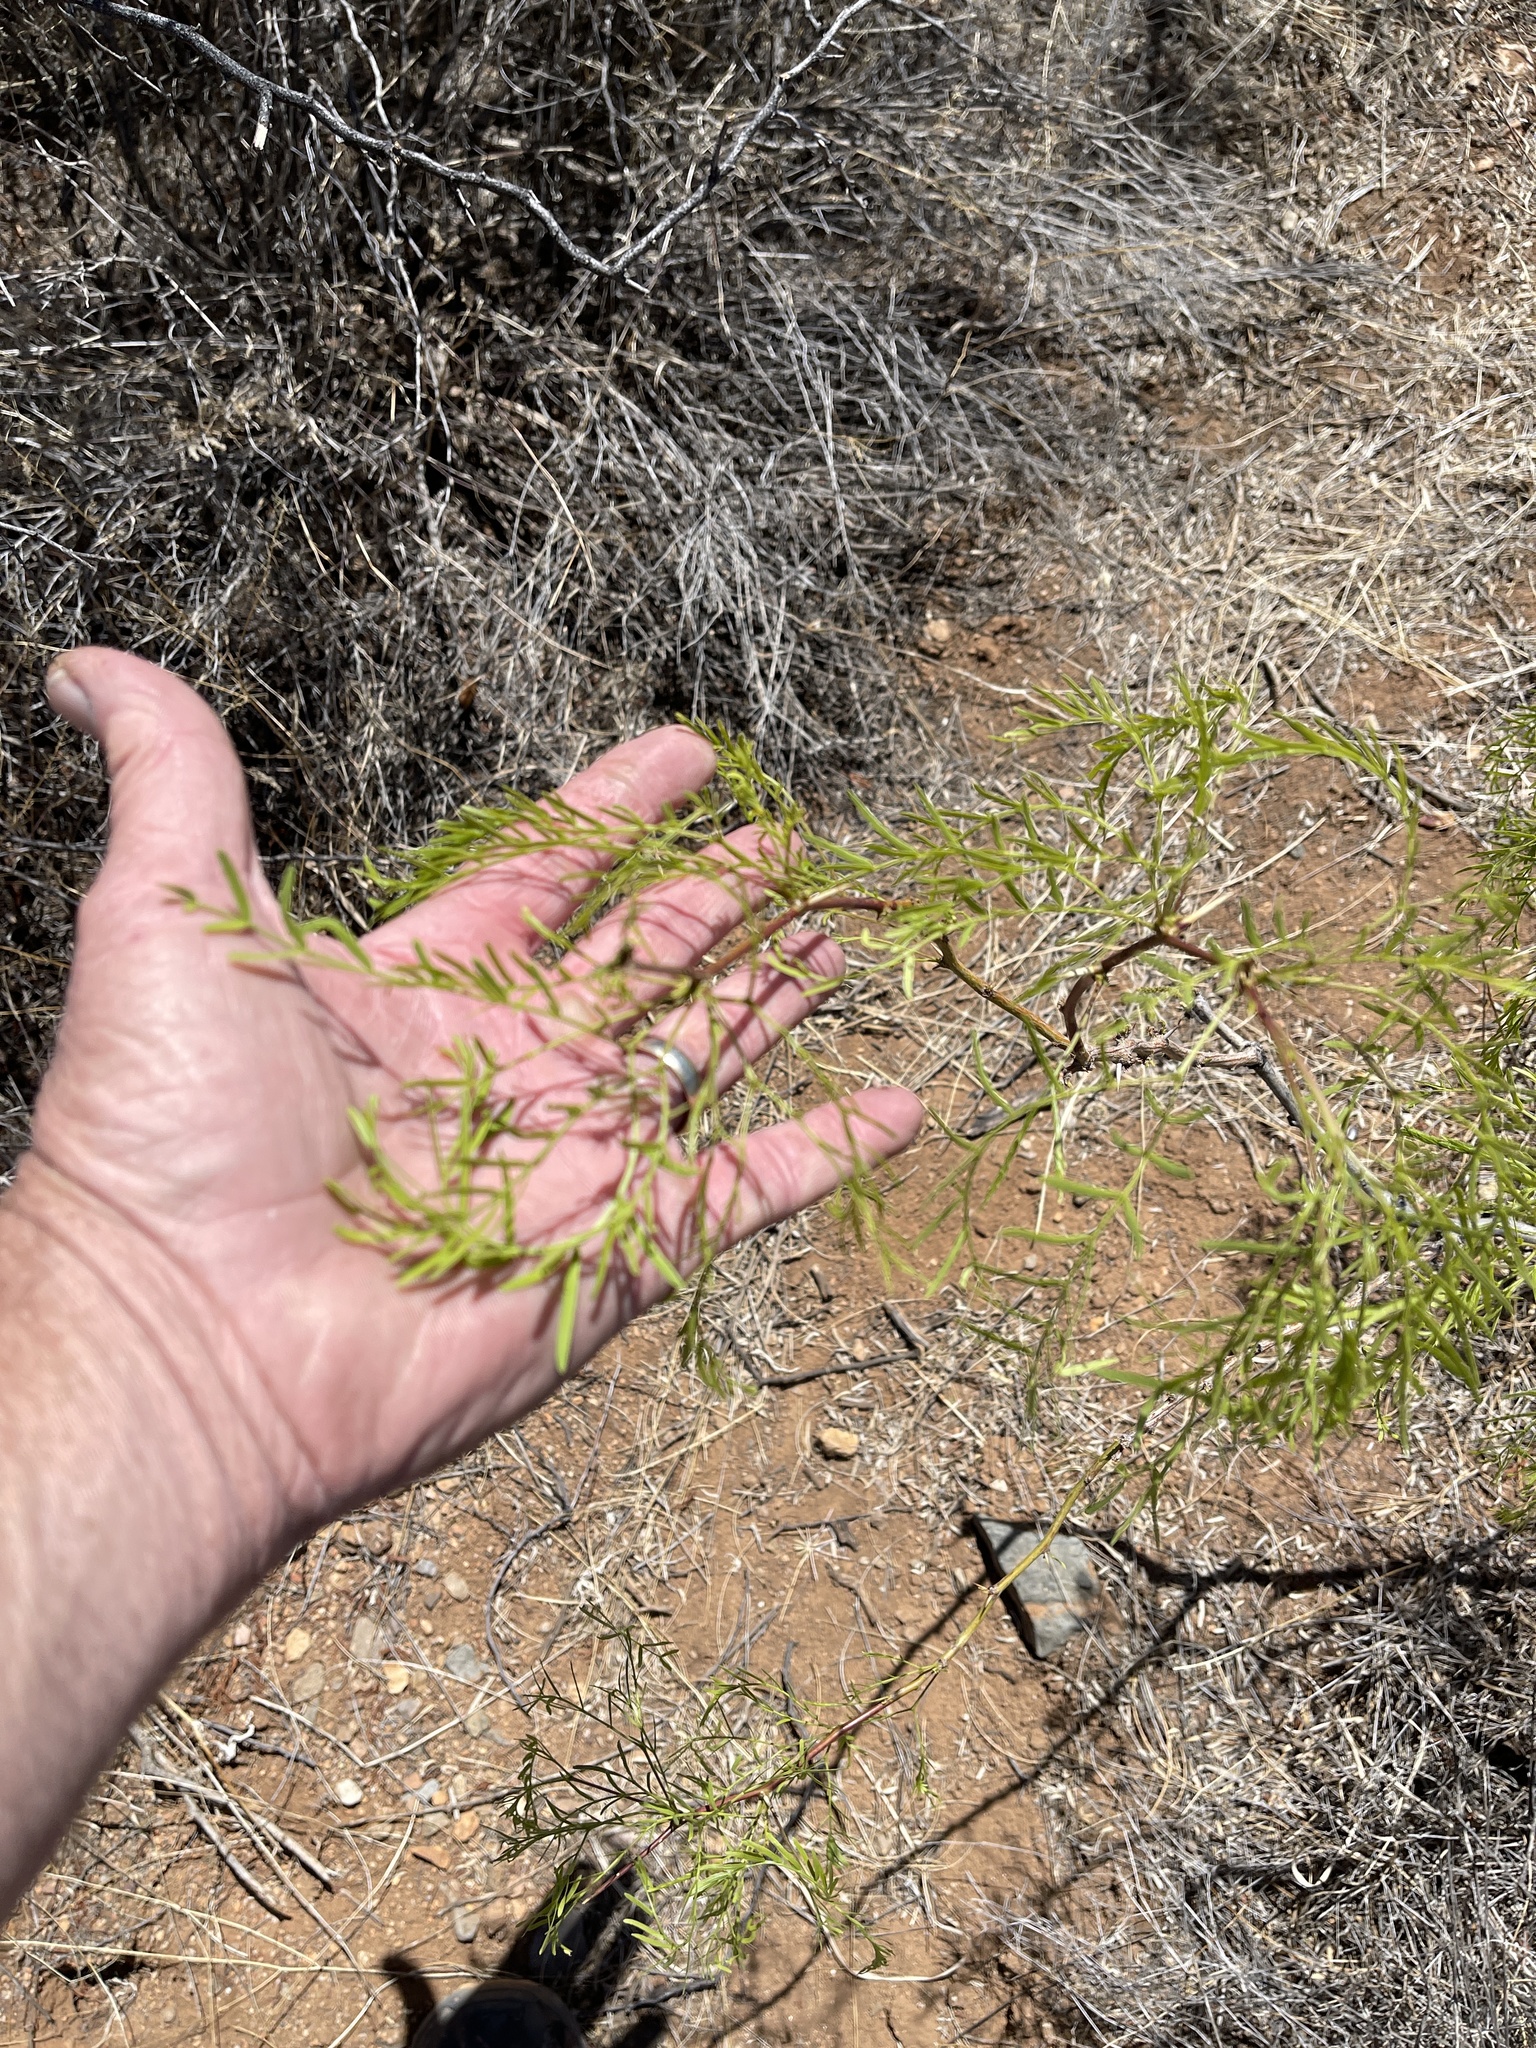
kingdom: Plantae
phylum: Tracheophyta
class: Magnoliopsida
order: Fabales
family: Fabaceae
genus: Prosopis
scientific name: Prosopis glandulosa
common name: Honey mesquite
